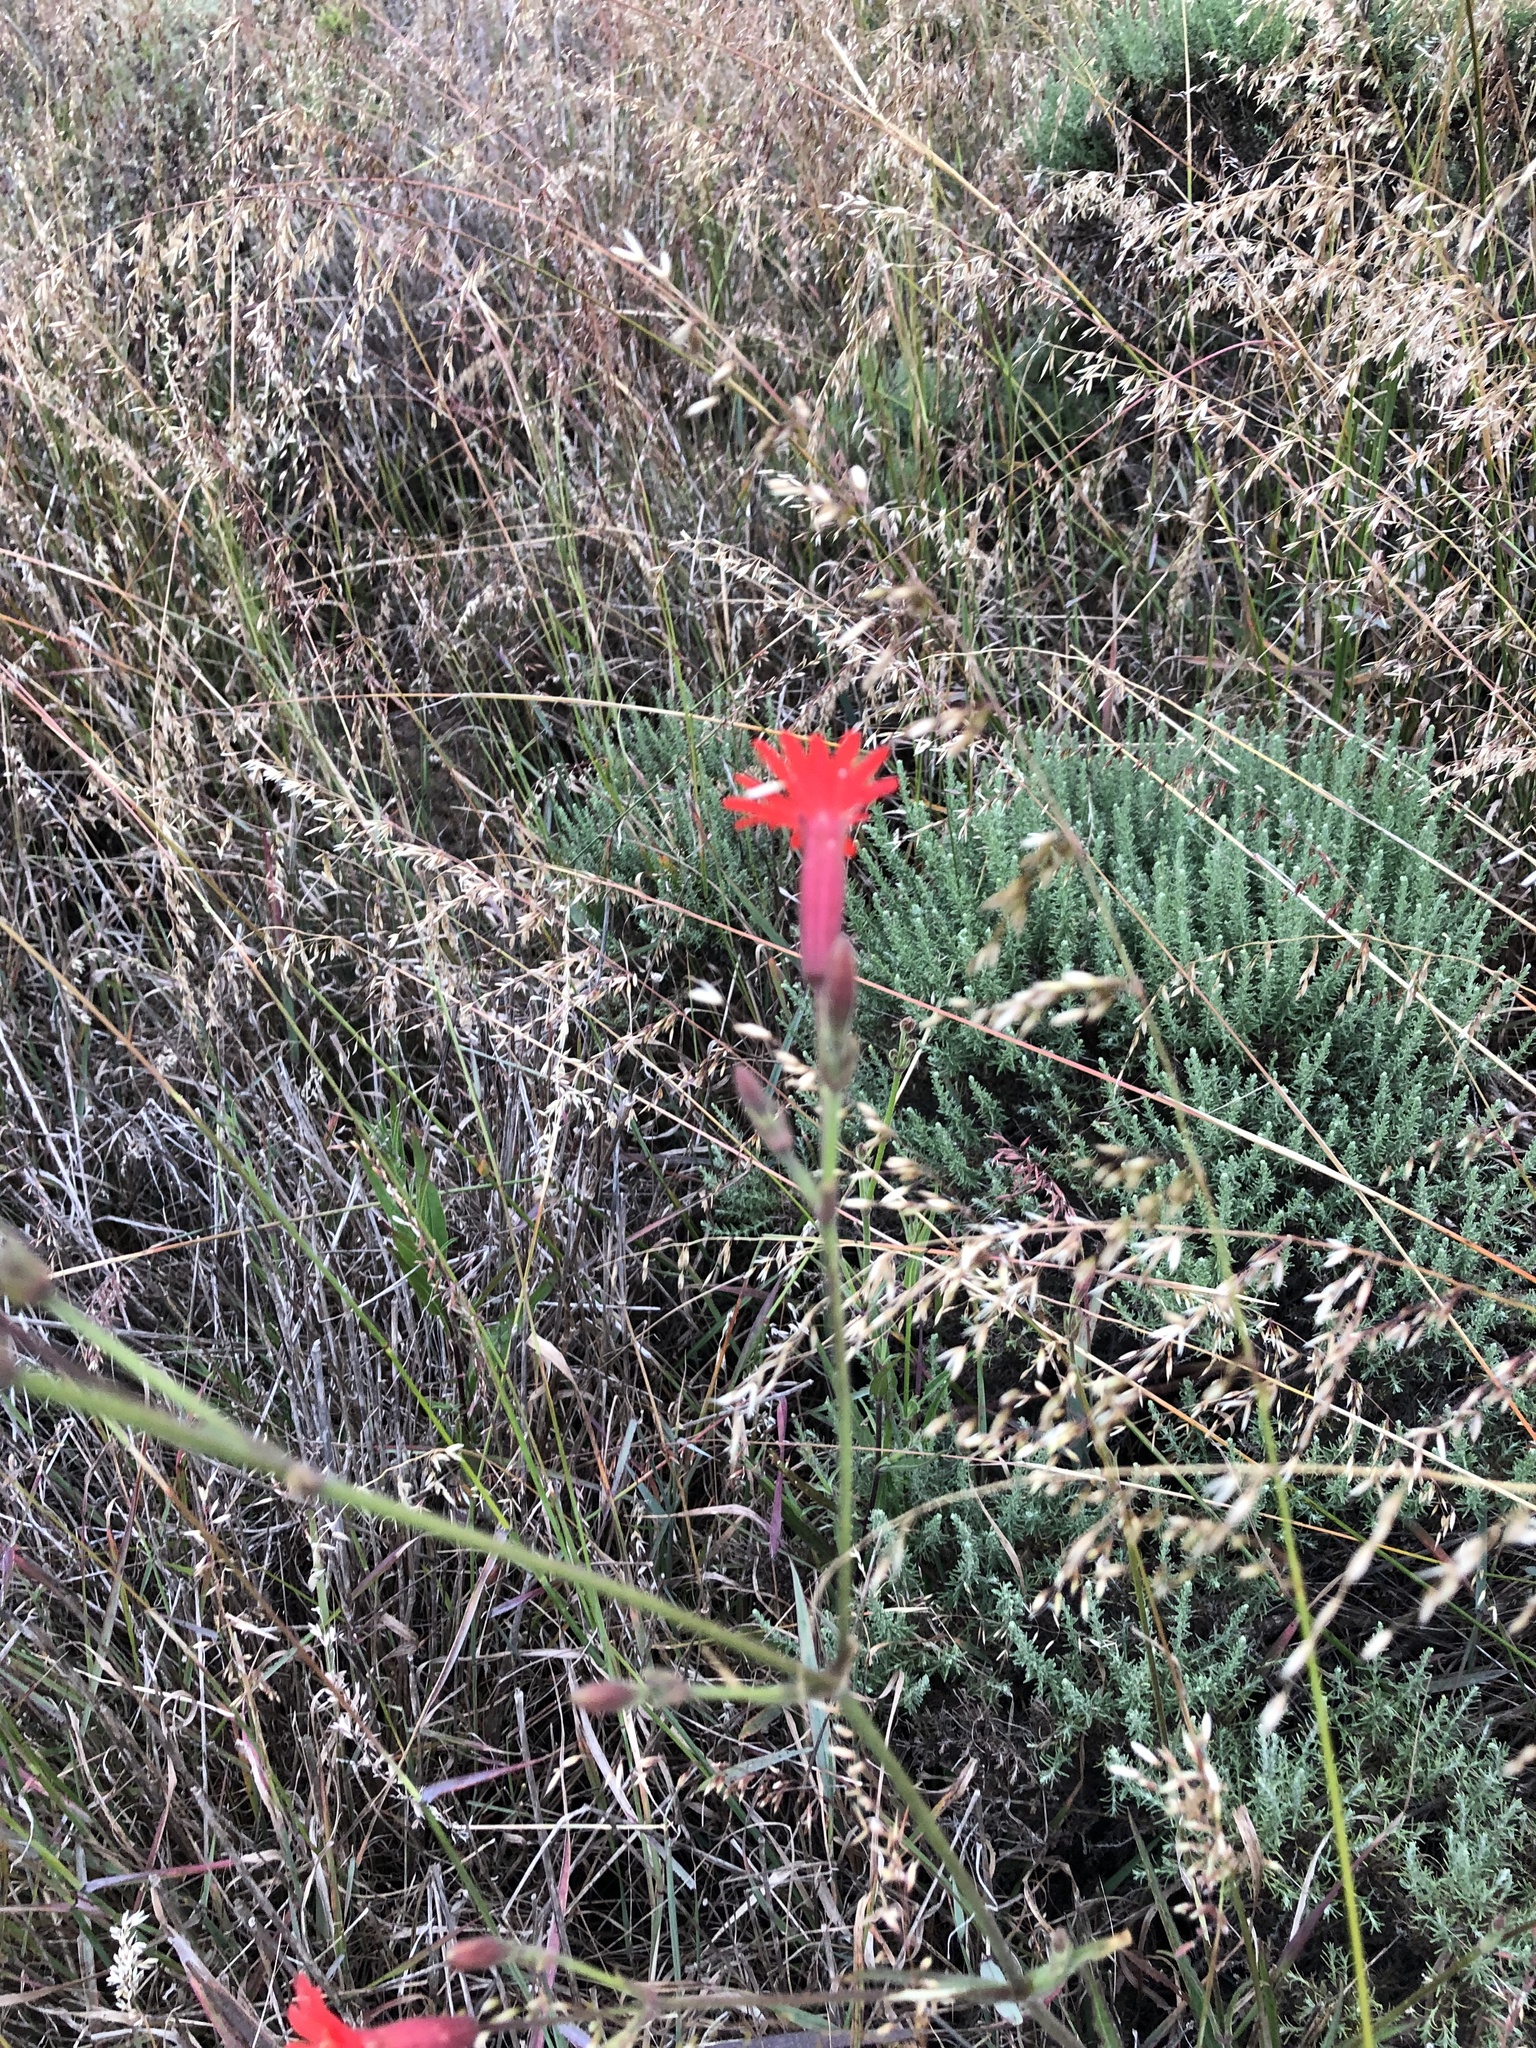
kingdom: Plantae
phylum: Tracheophyta
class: Magnoliopsida
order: Caryophyllales
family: Caryophyllaceae
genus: Silene
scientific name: Silene laciniata
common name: Indian-pink
